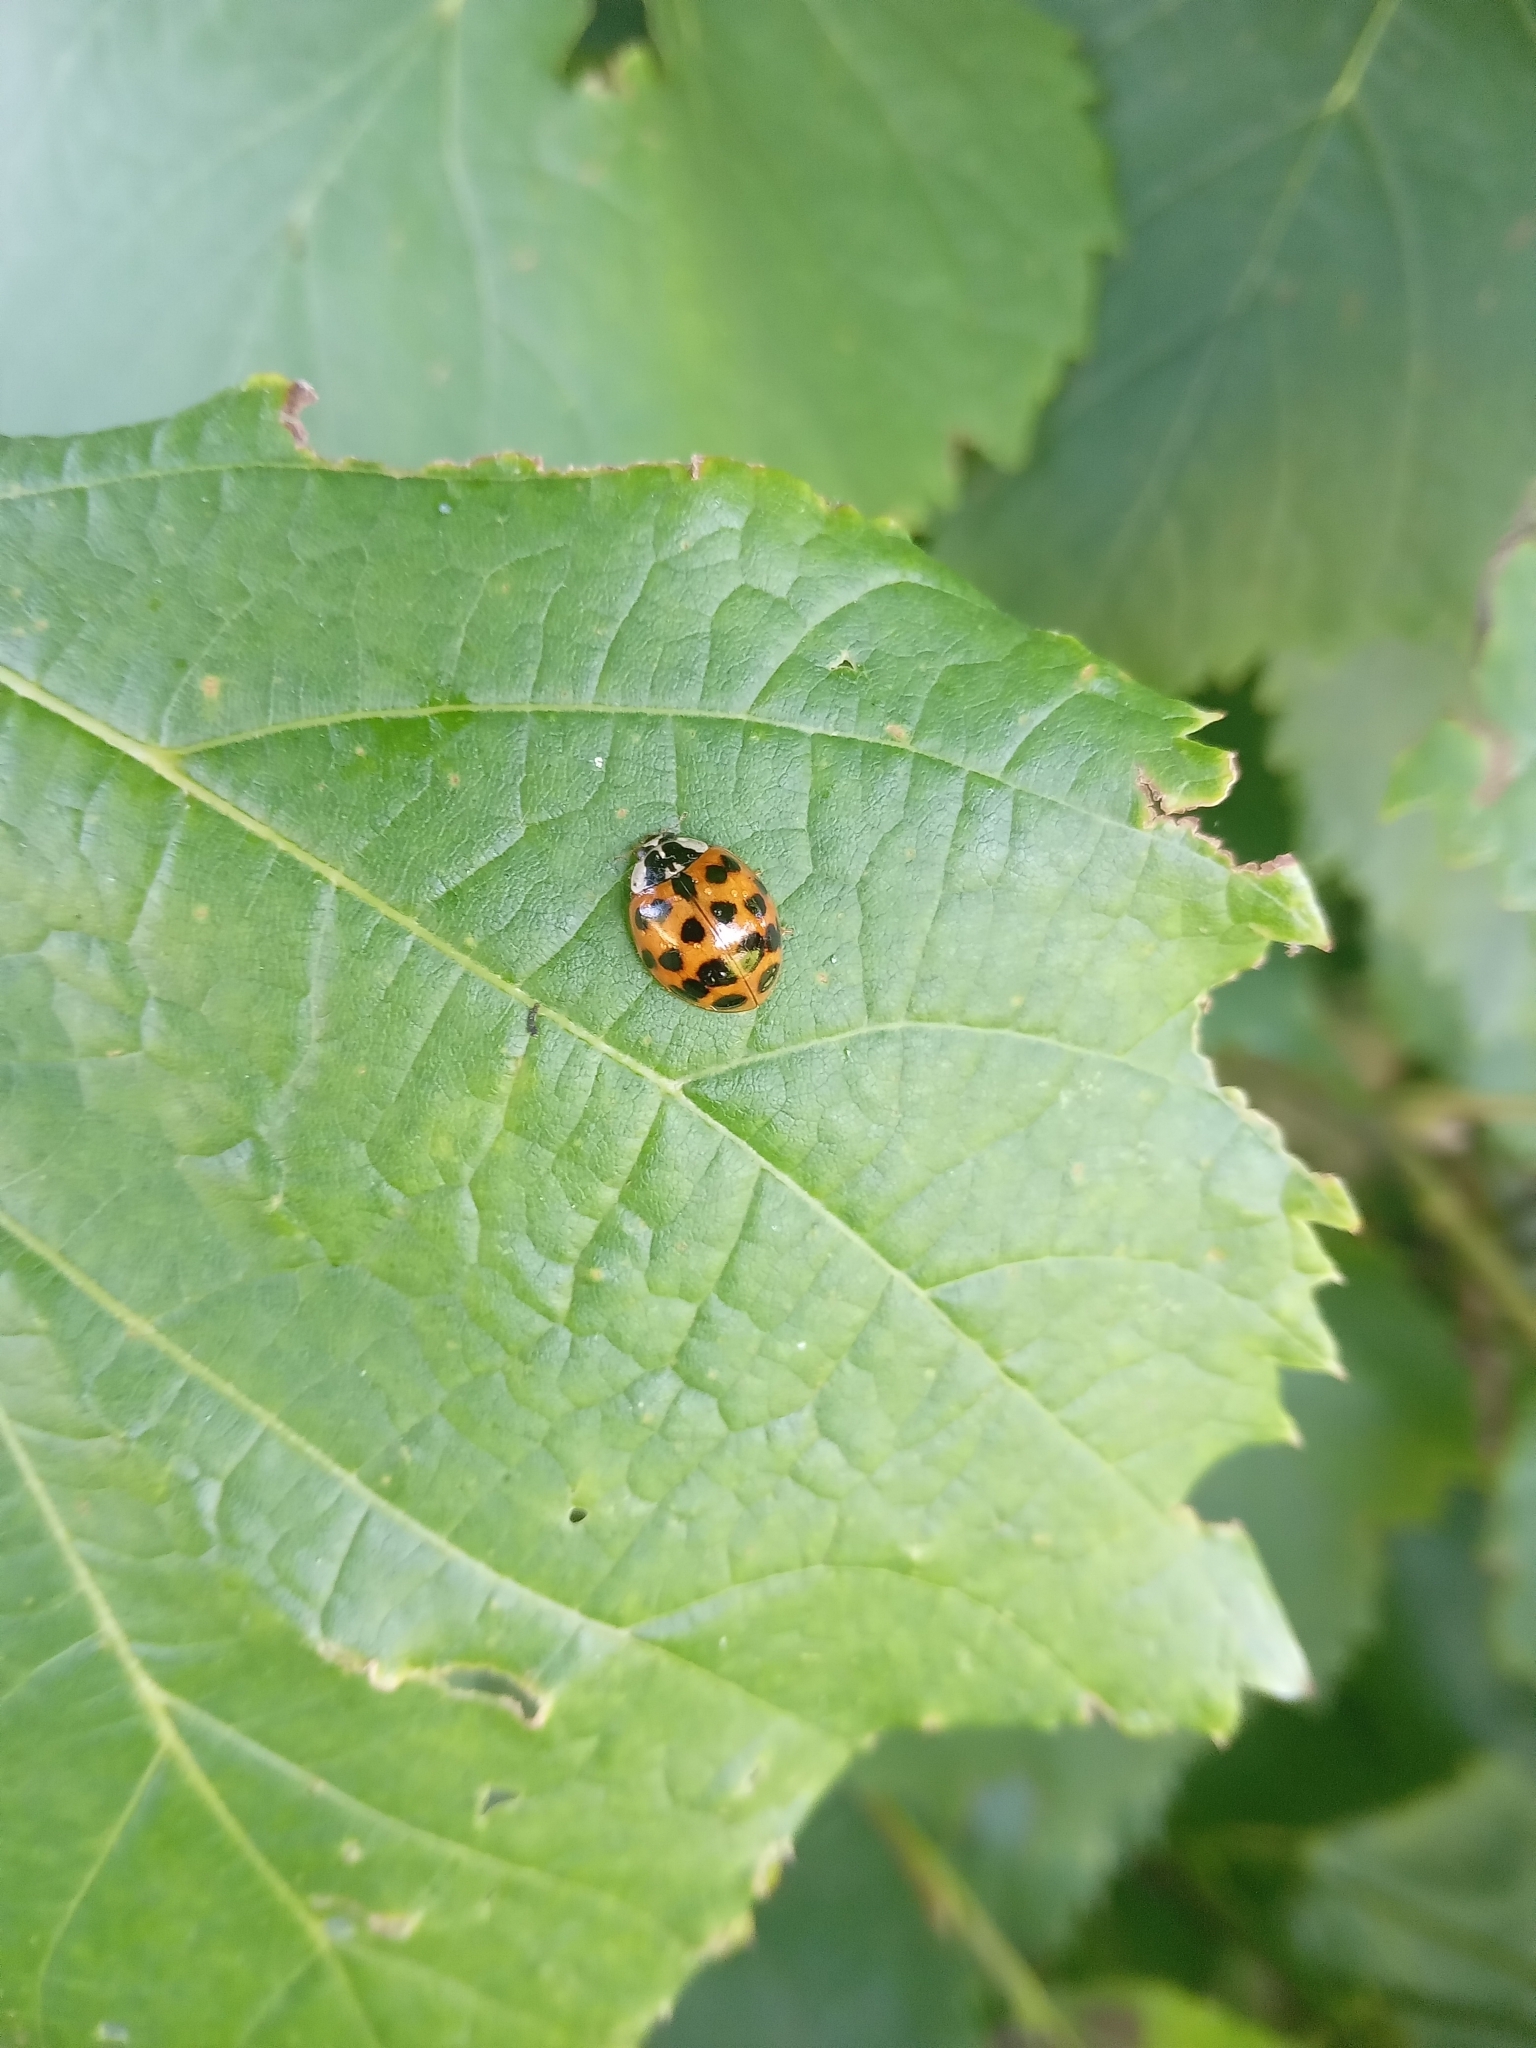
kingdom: Animalia
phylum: Arthropoda
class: Insecta
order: Coleoptera
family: Coccinellidae
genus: Harmonia
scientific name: Harmonia axyridis
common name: Harlequin ladybird
